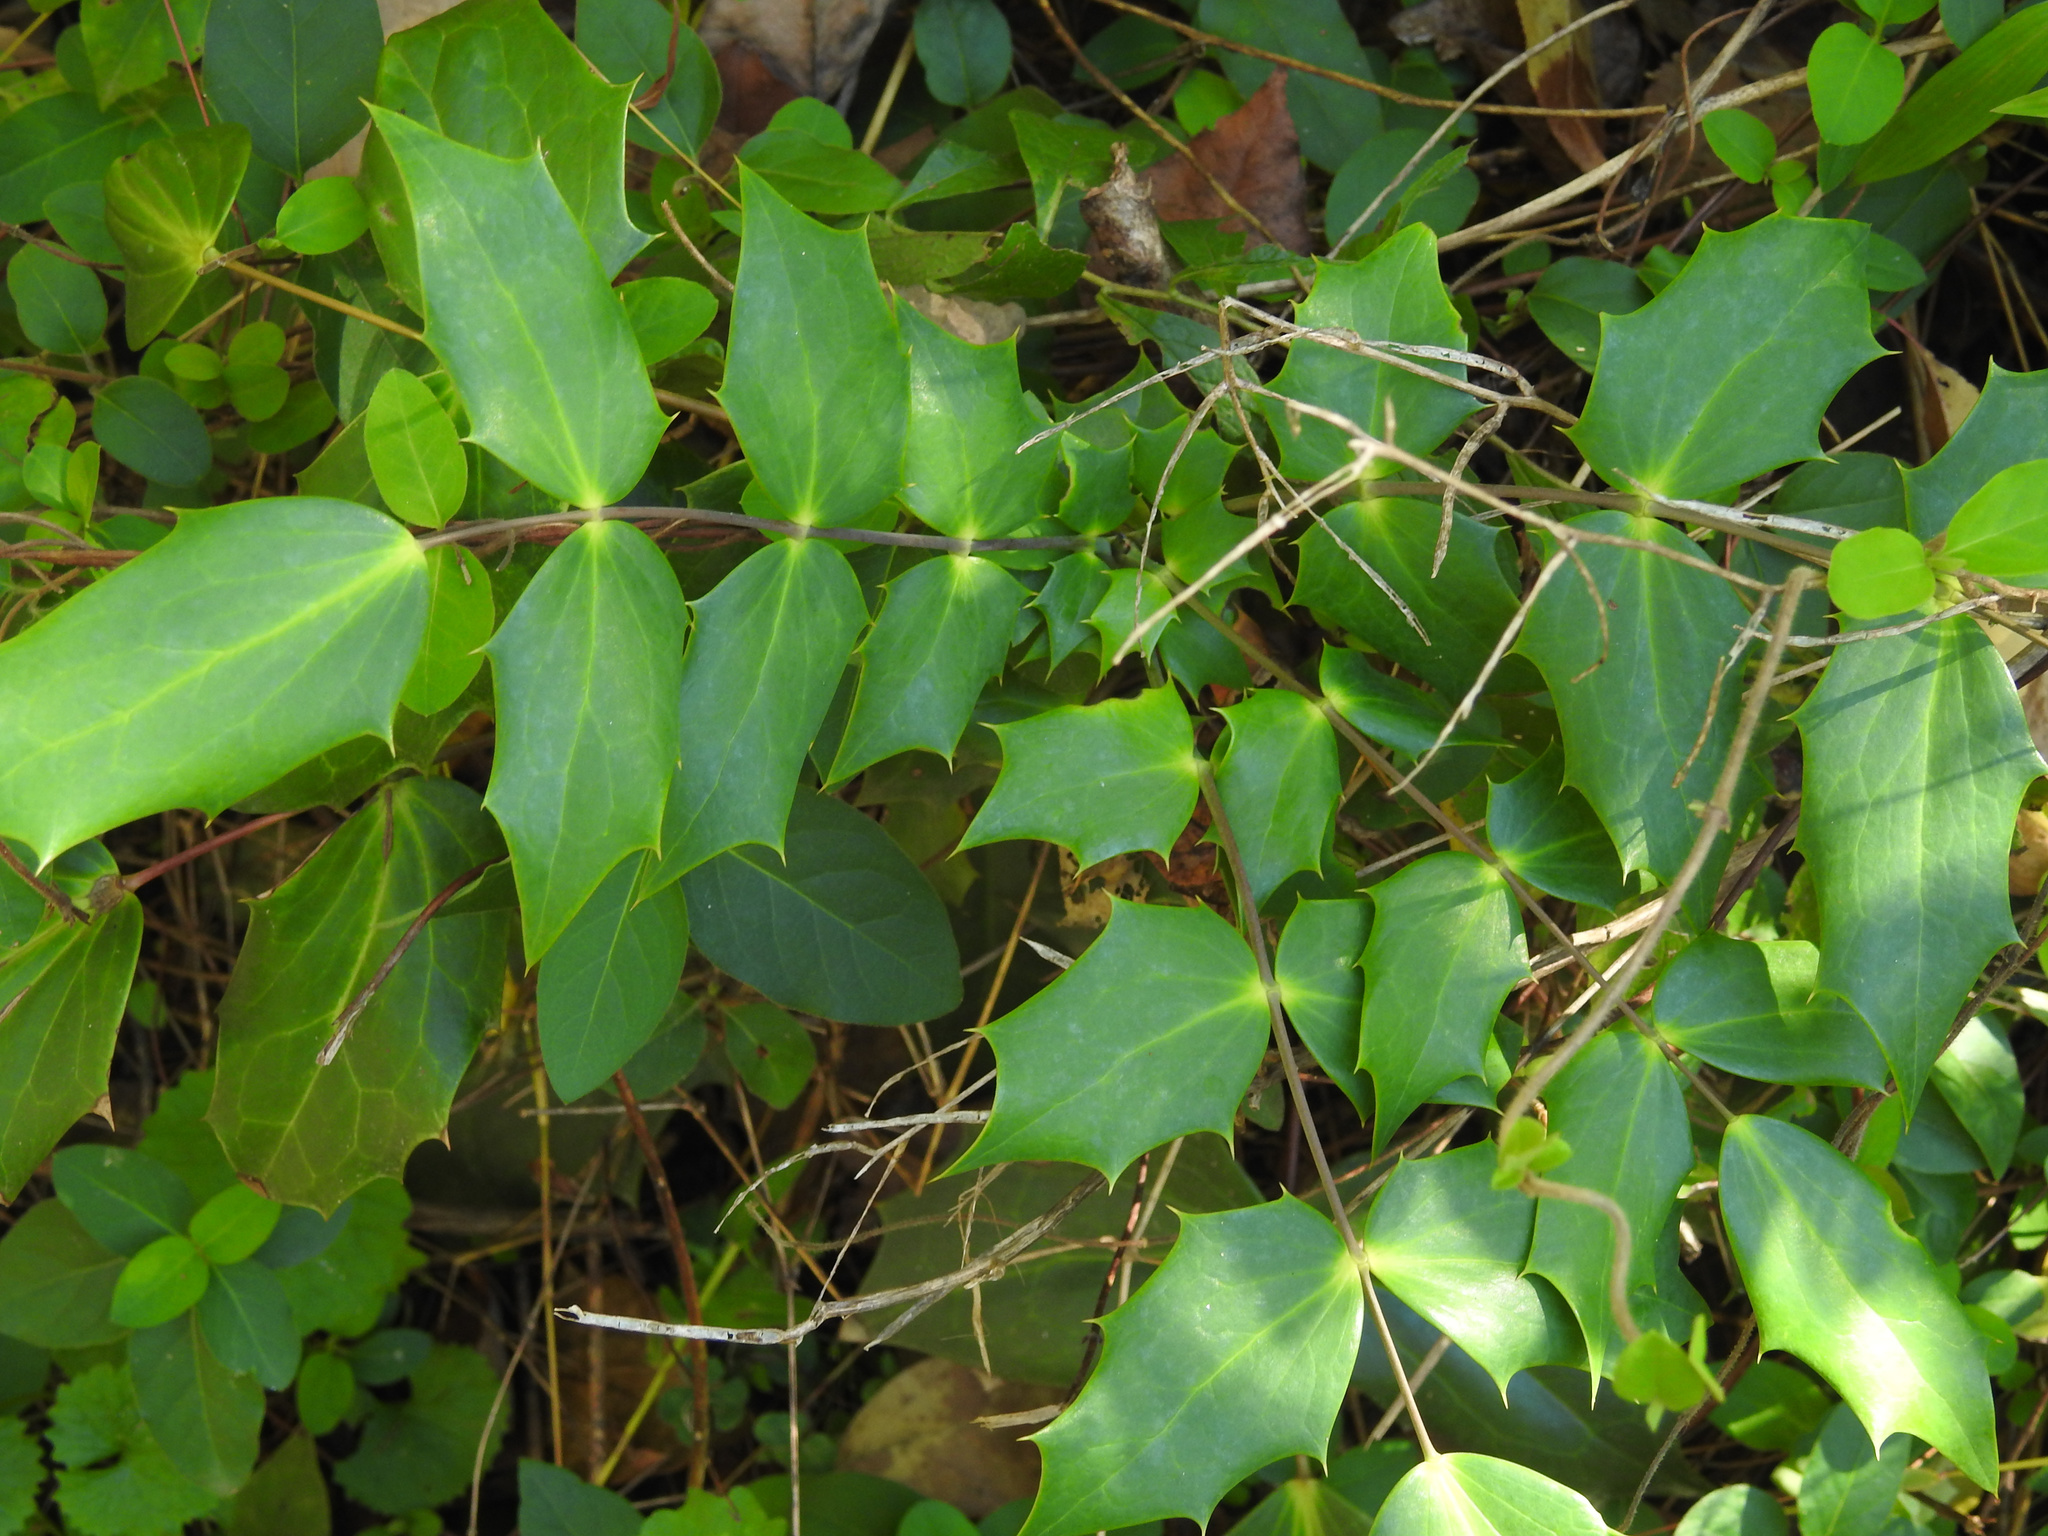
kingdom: Plantae
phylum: Tracheophyta
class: Magnoliopsida
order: Ranunculales
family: Berberidaceae
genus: Mahonia
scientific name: Mahonia bealei
